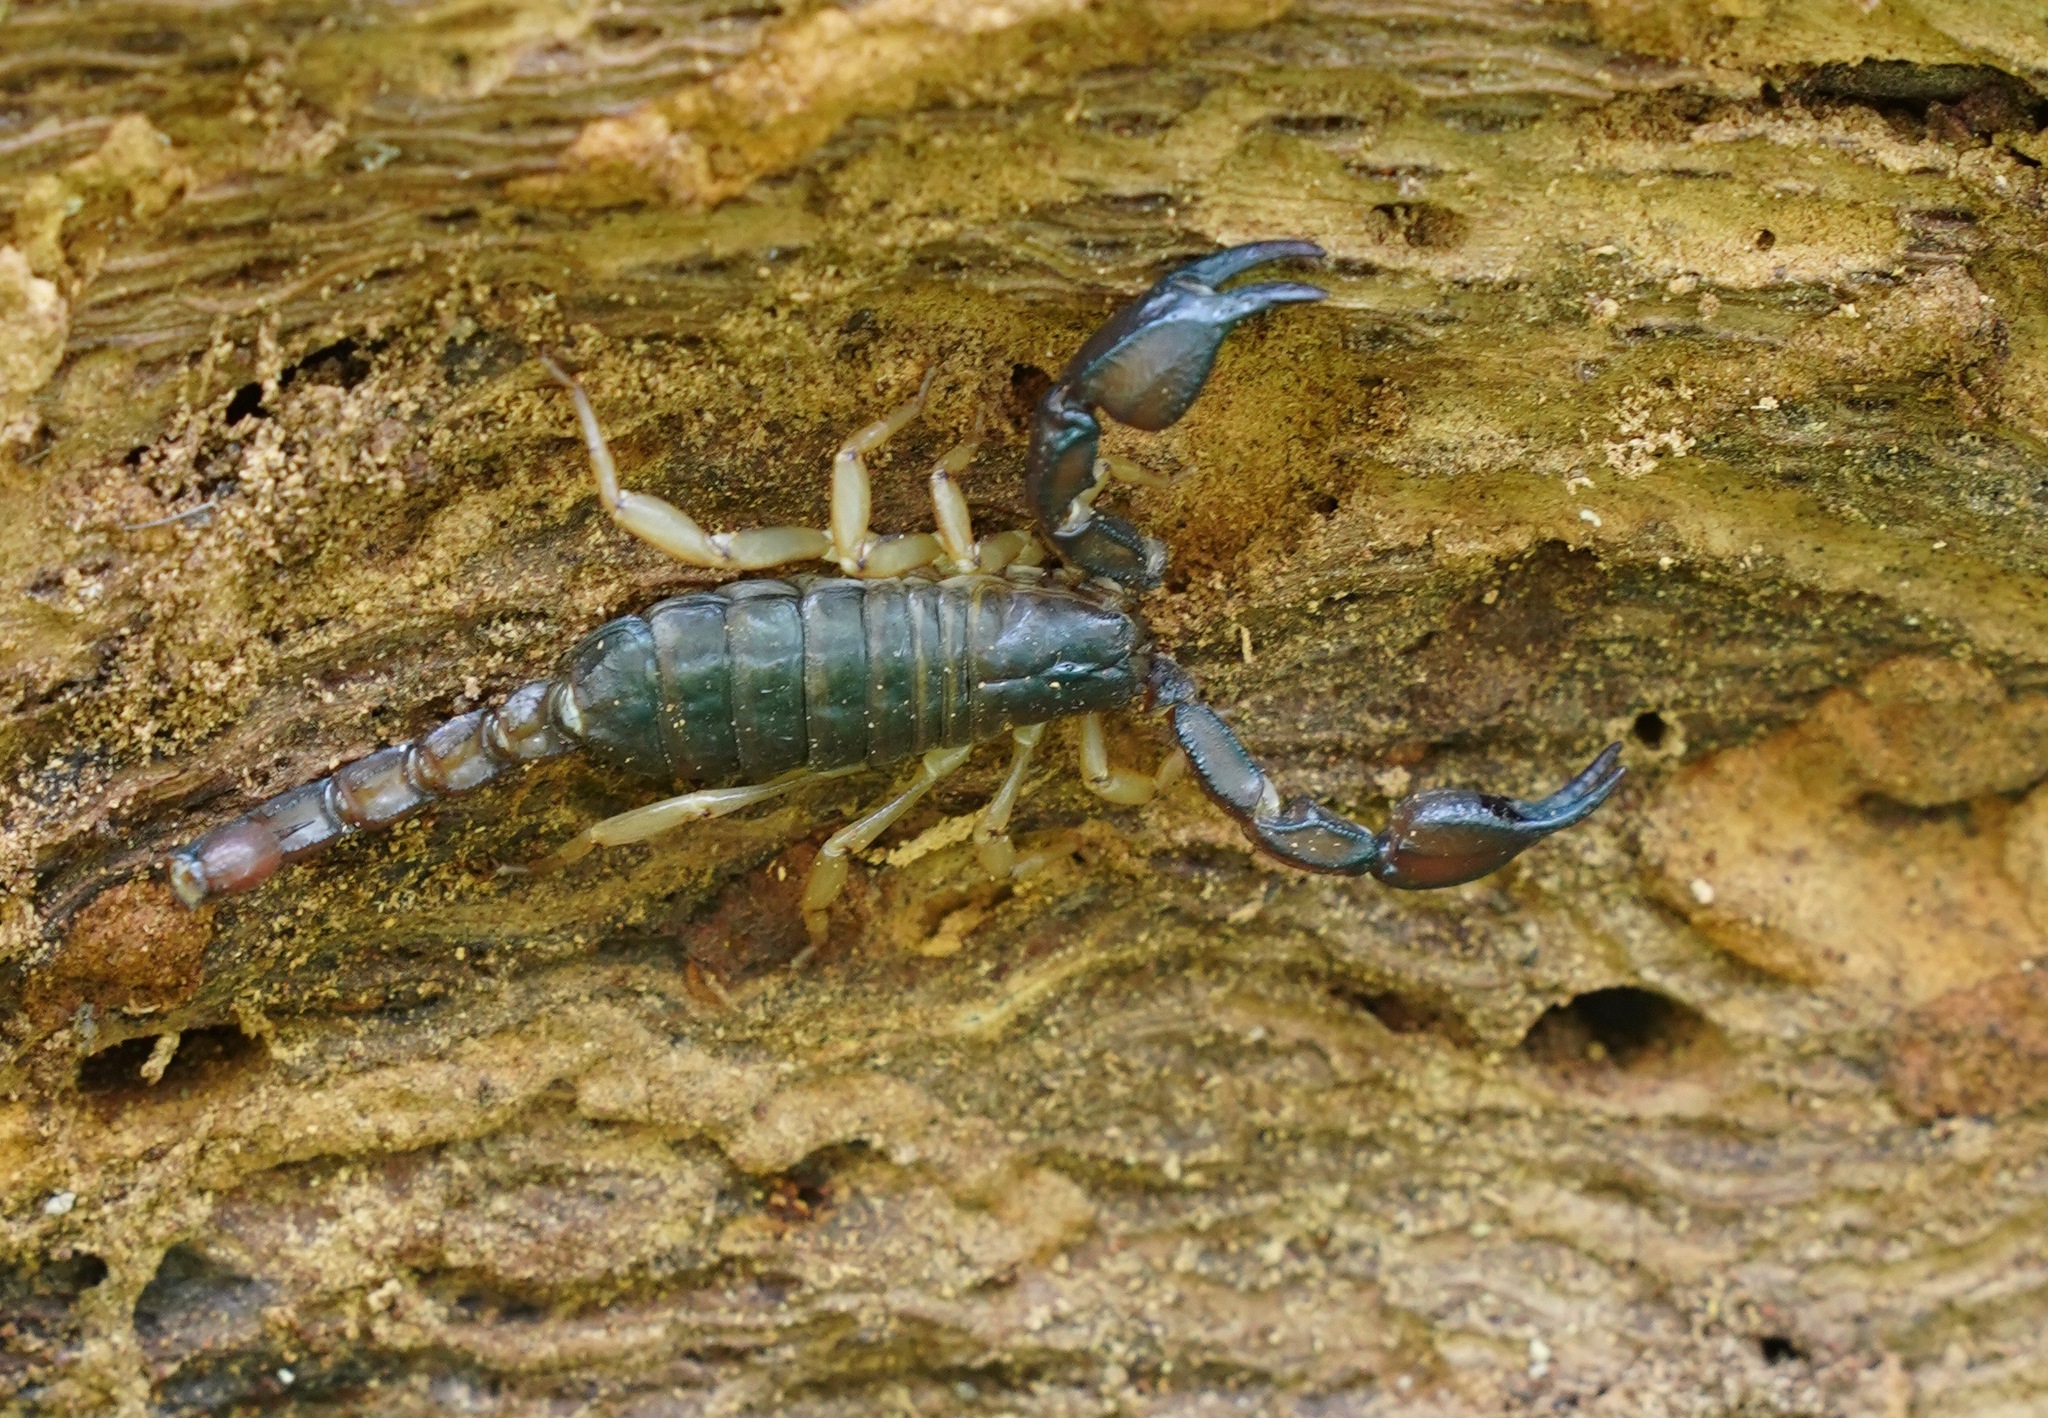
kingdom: Animalia
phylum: Arthropoda
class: Arachnida
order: Scorpiones
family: Chactidae
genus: Uroctonus
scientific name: Uroctonus mordax
